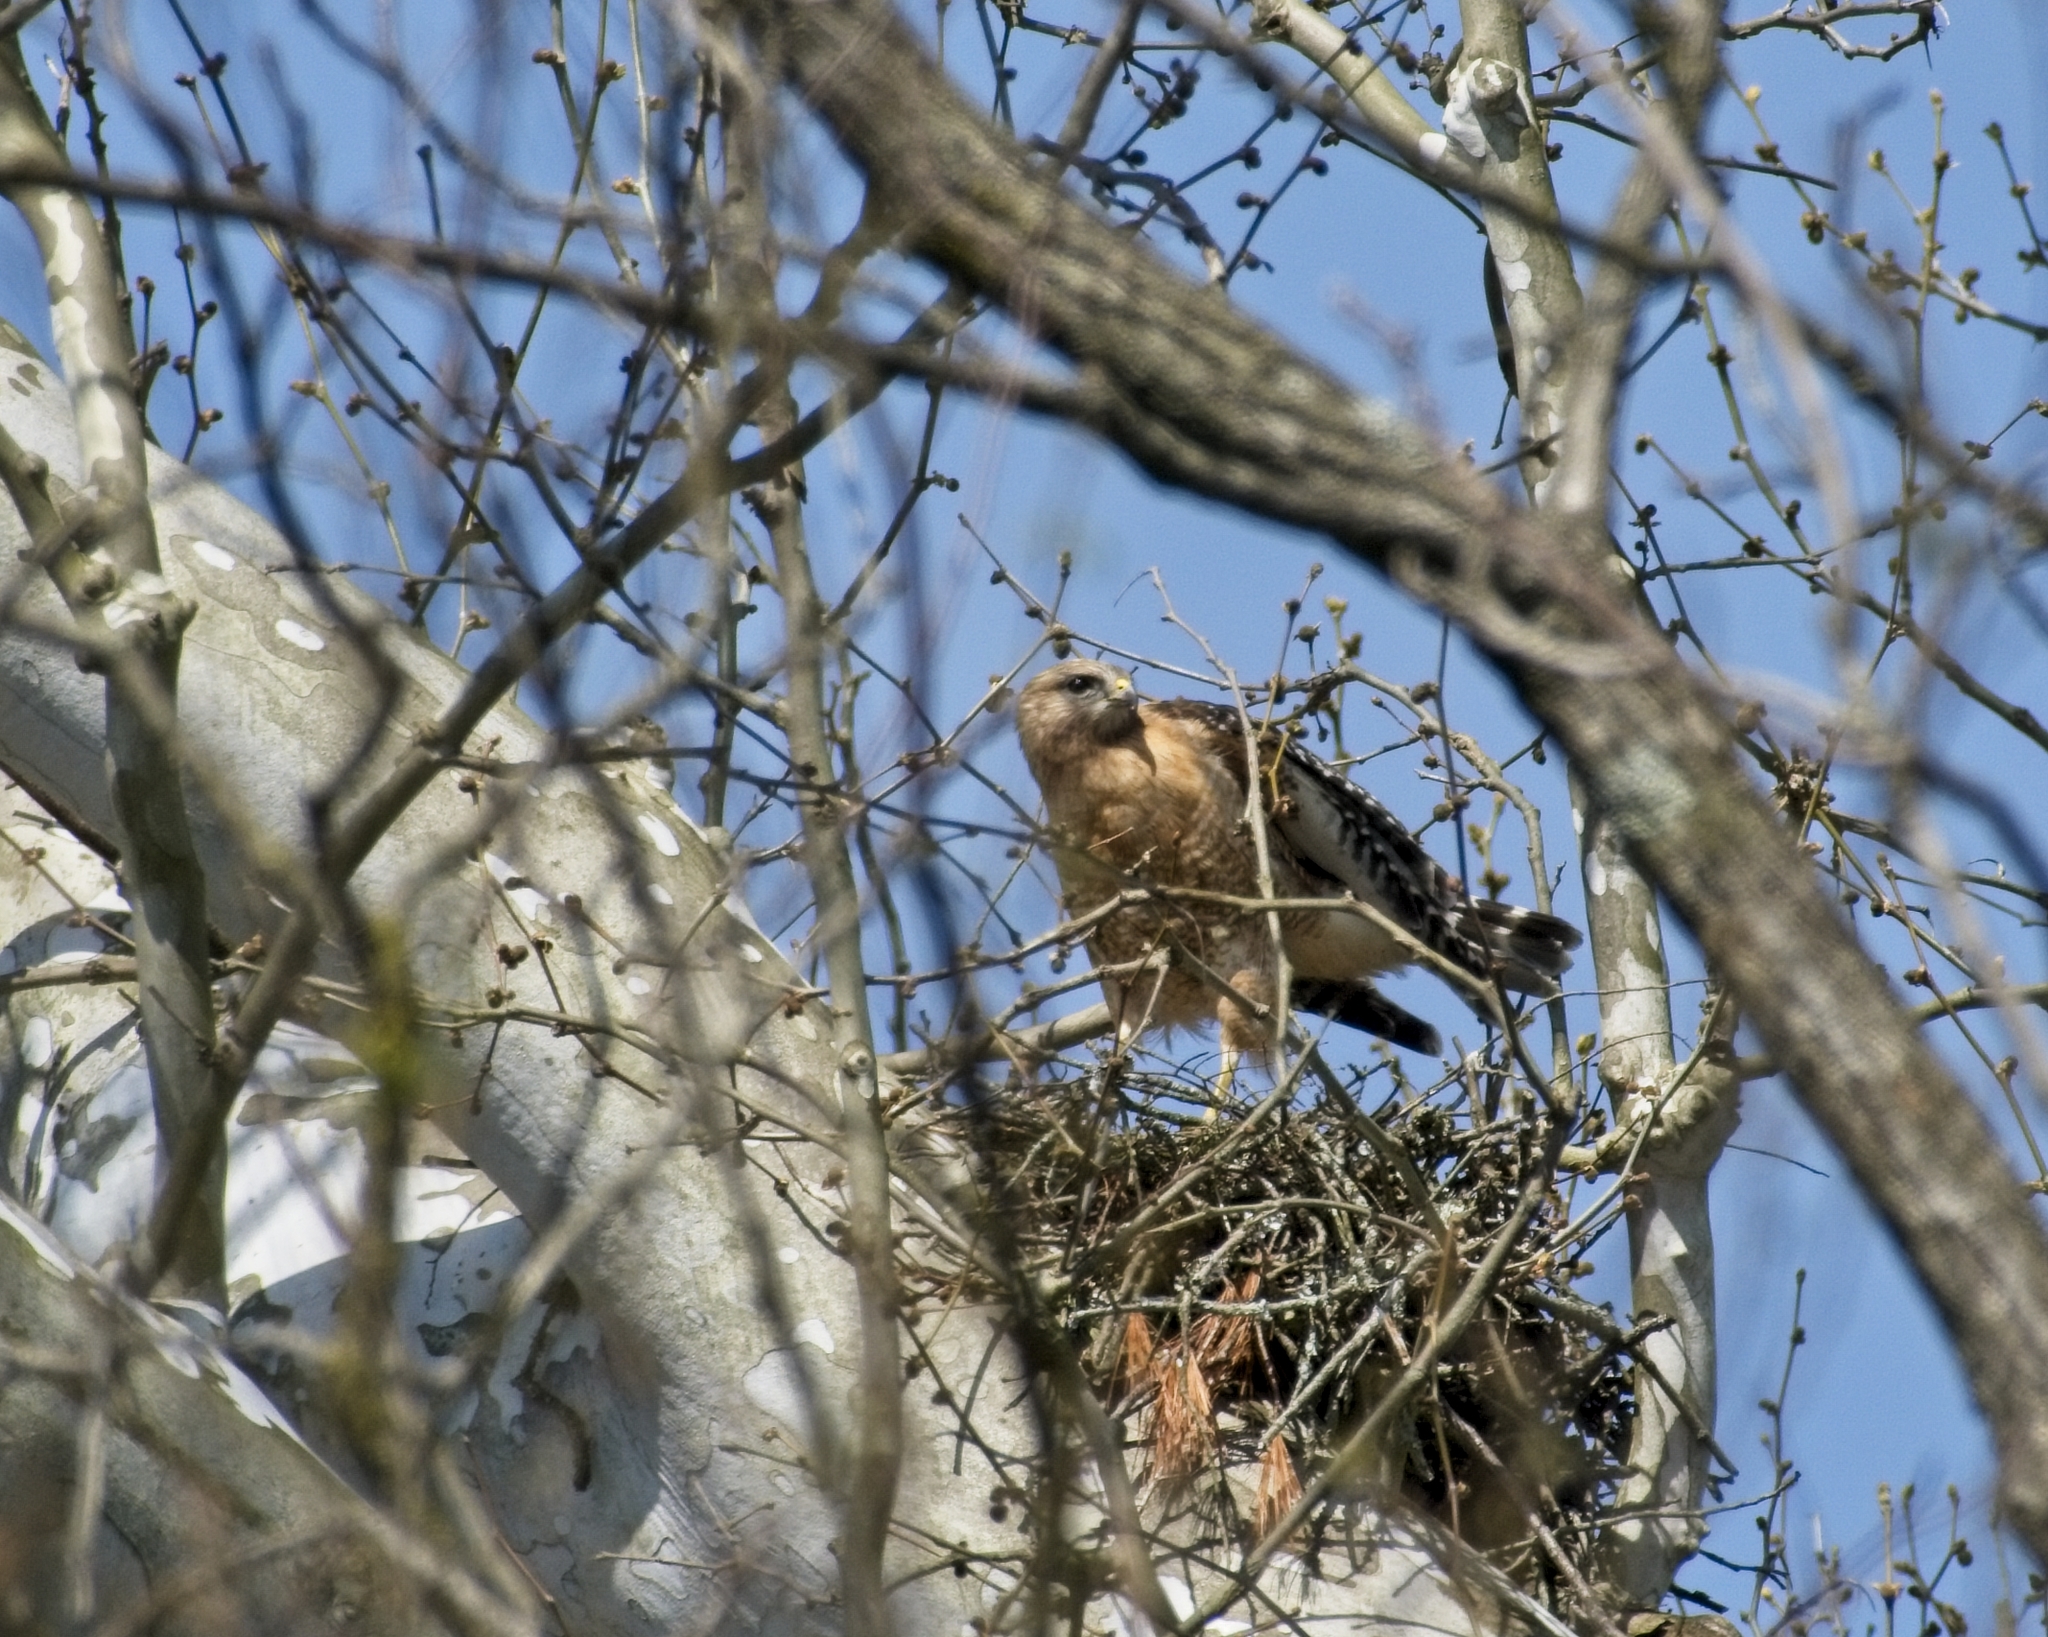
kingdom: Animalia
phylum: Chordata
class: Aves
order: Accipitriformes
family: Accipitridae
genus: Buteo
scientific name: Buteo lineatus
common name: Red-shouldered hawk
